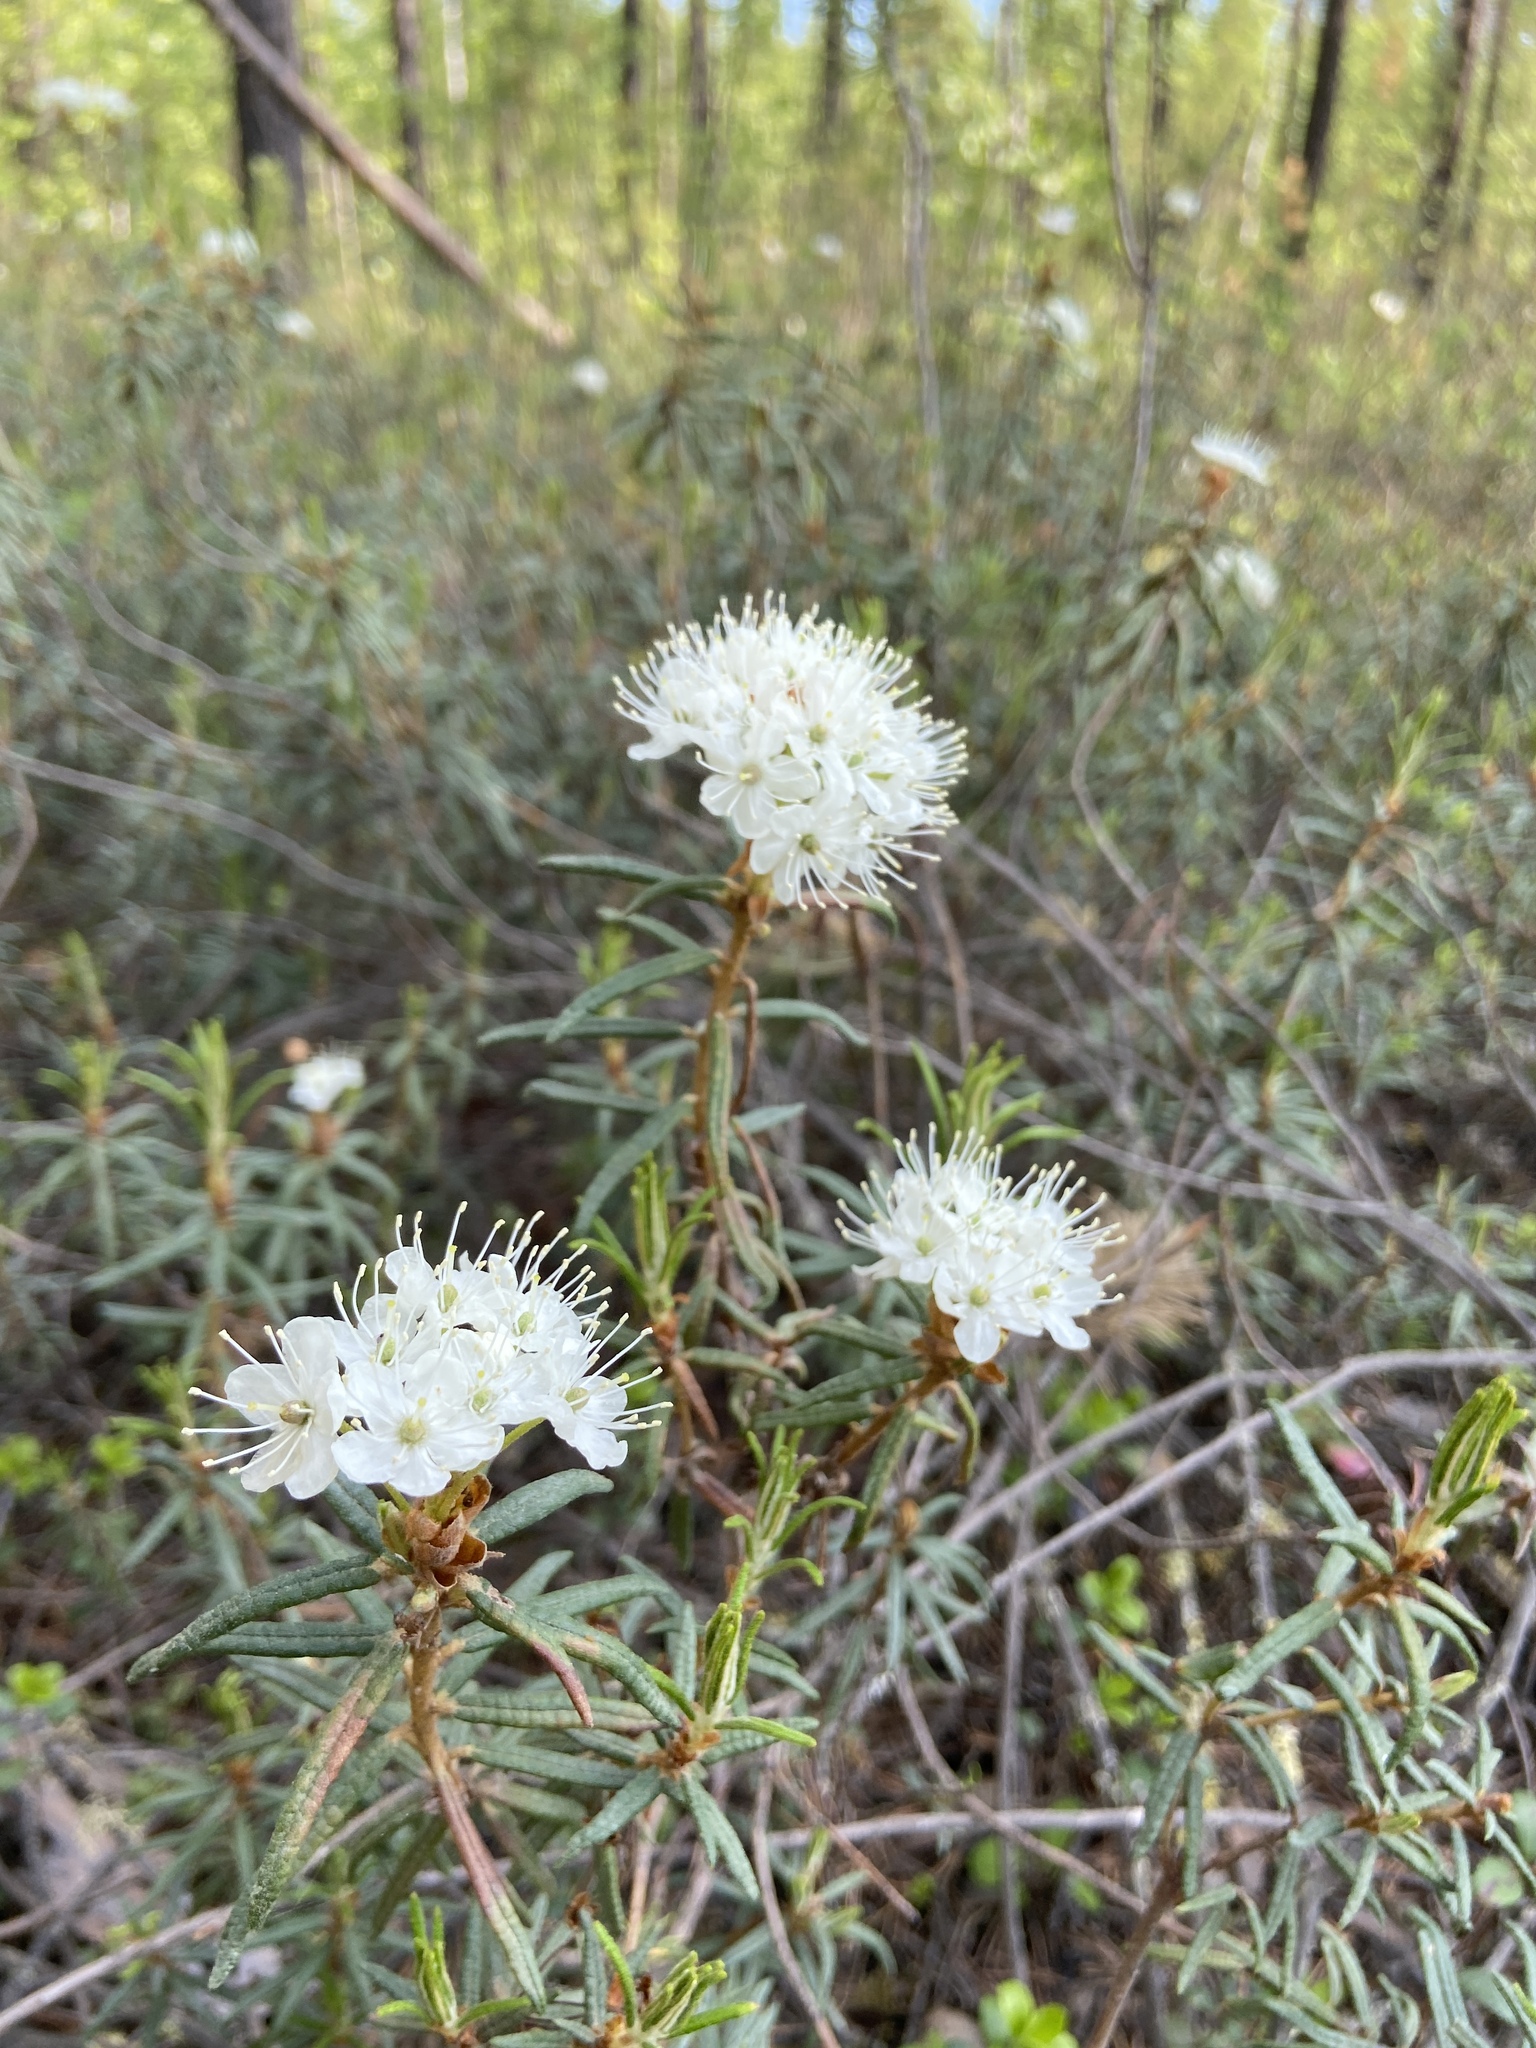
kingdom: Plantae
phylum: Tracheophyta
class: Magnoliopsida
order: Ericales
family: Ericaceae
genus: Rhododendron
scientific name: Rhododendron tomentosum
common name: Marsh labrador tea
